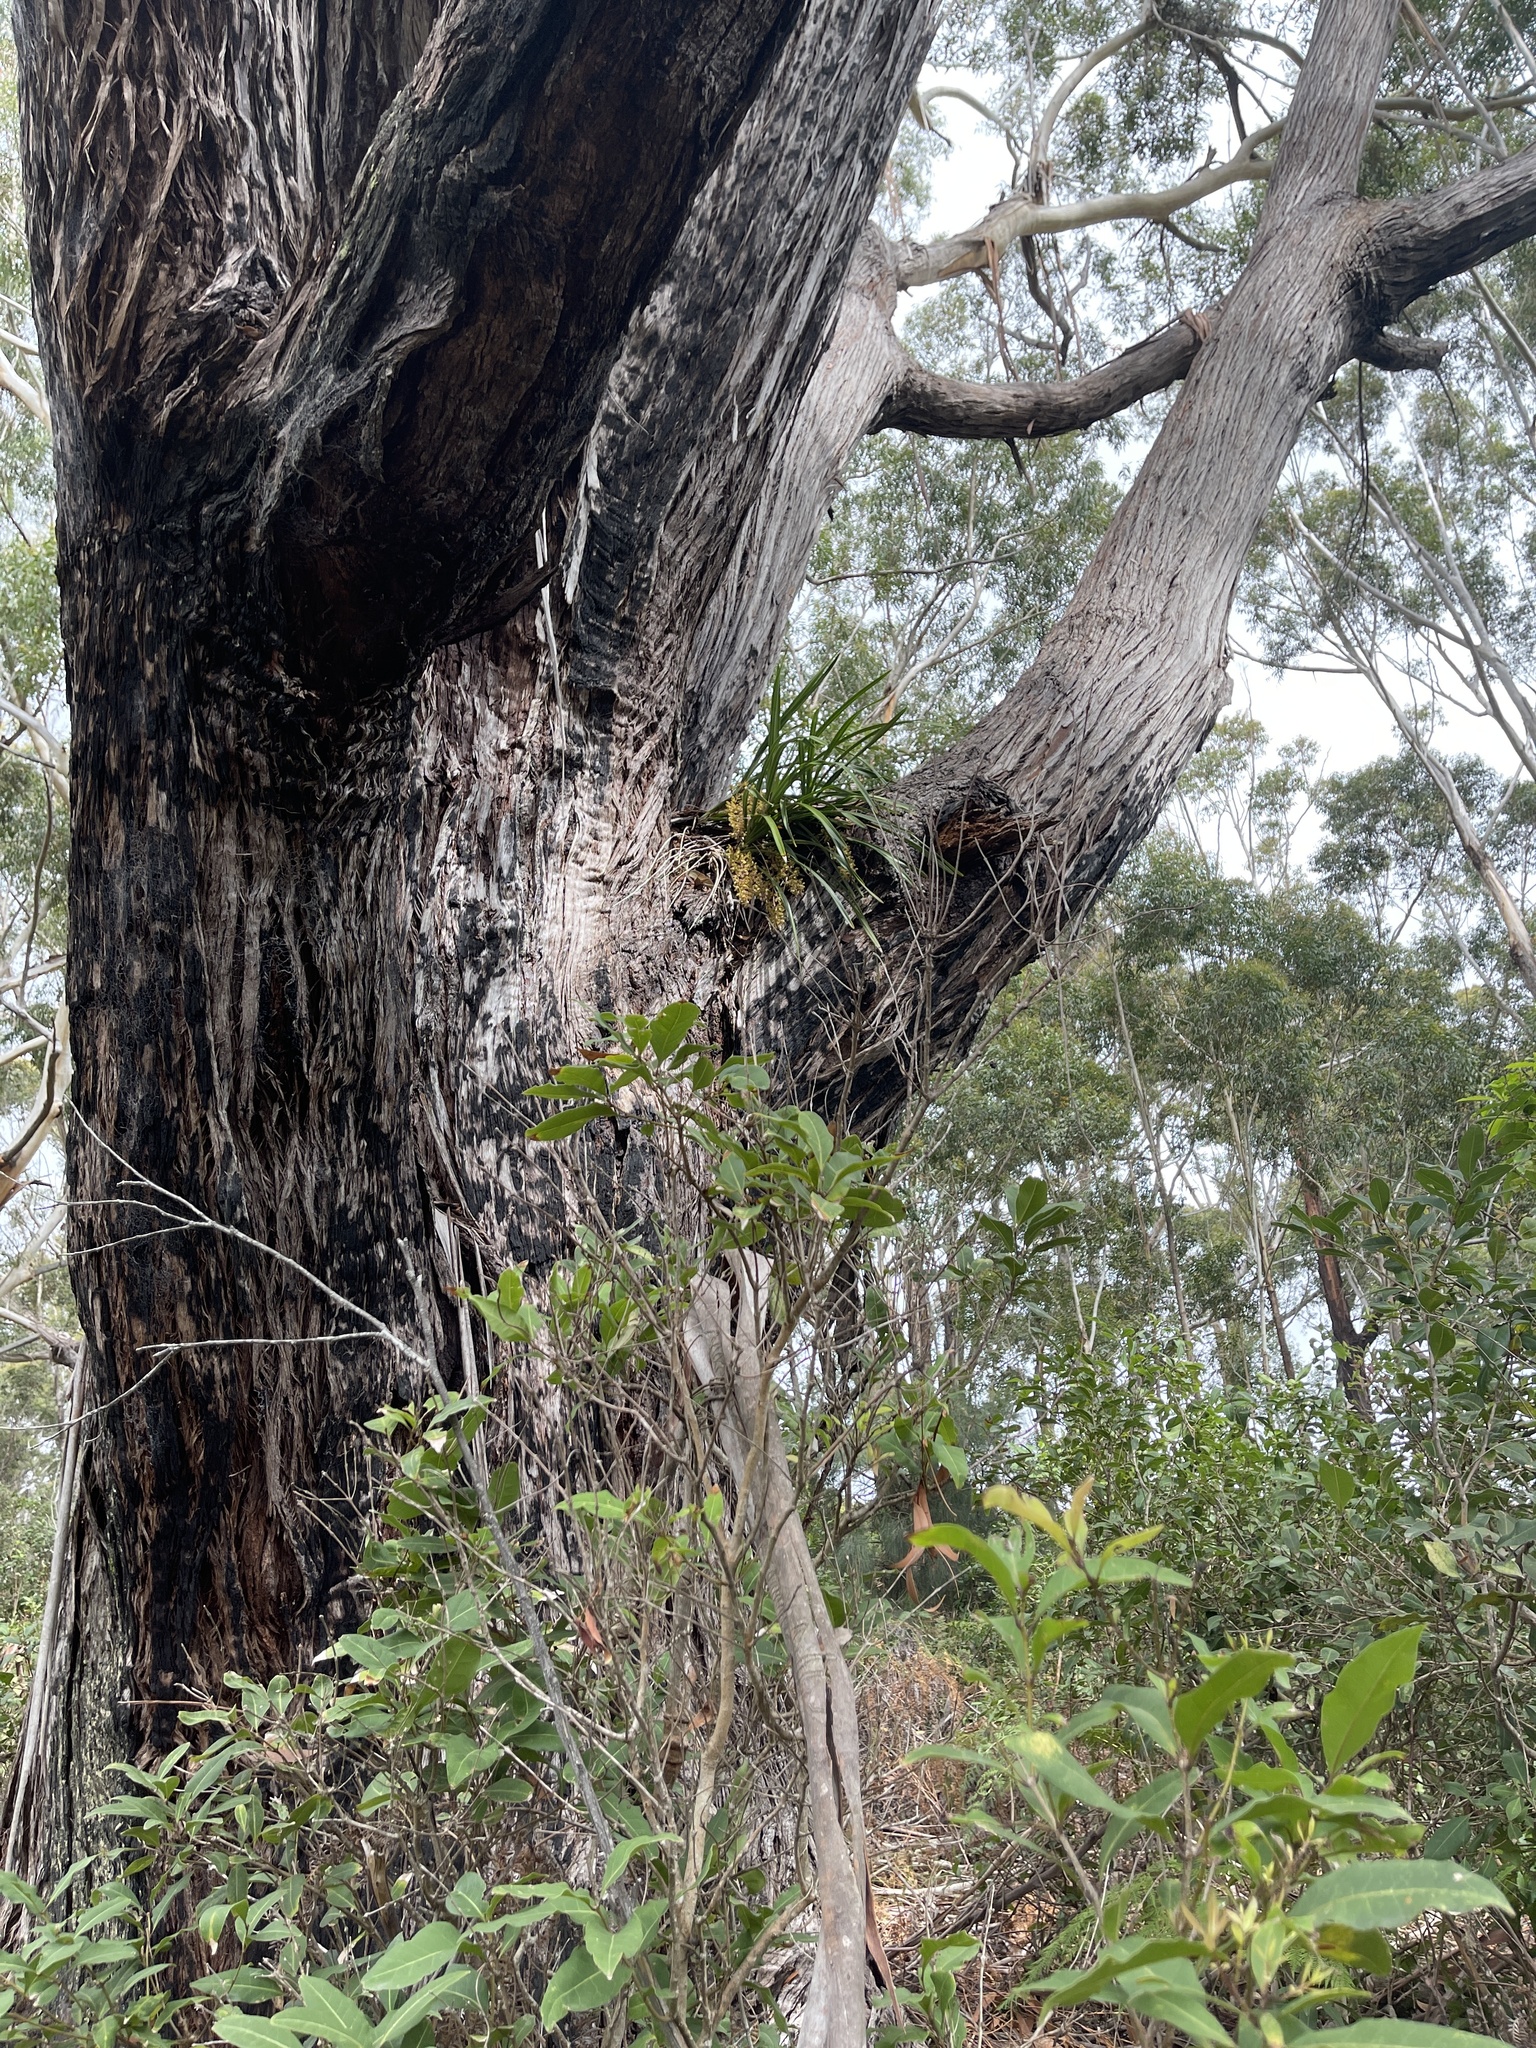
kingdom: Plantae
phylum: Tracheophyta
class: Liliopsida
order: Asparagales
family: Orchidaceae
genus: Cymbidium
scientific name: Cymbidium suave
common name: Snake orchid
